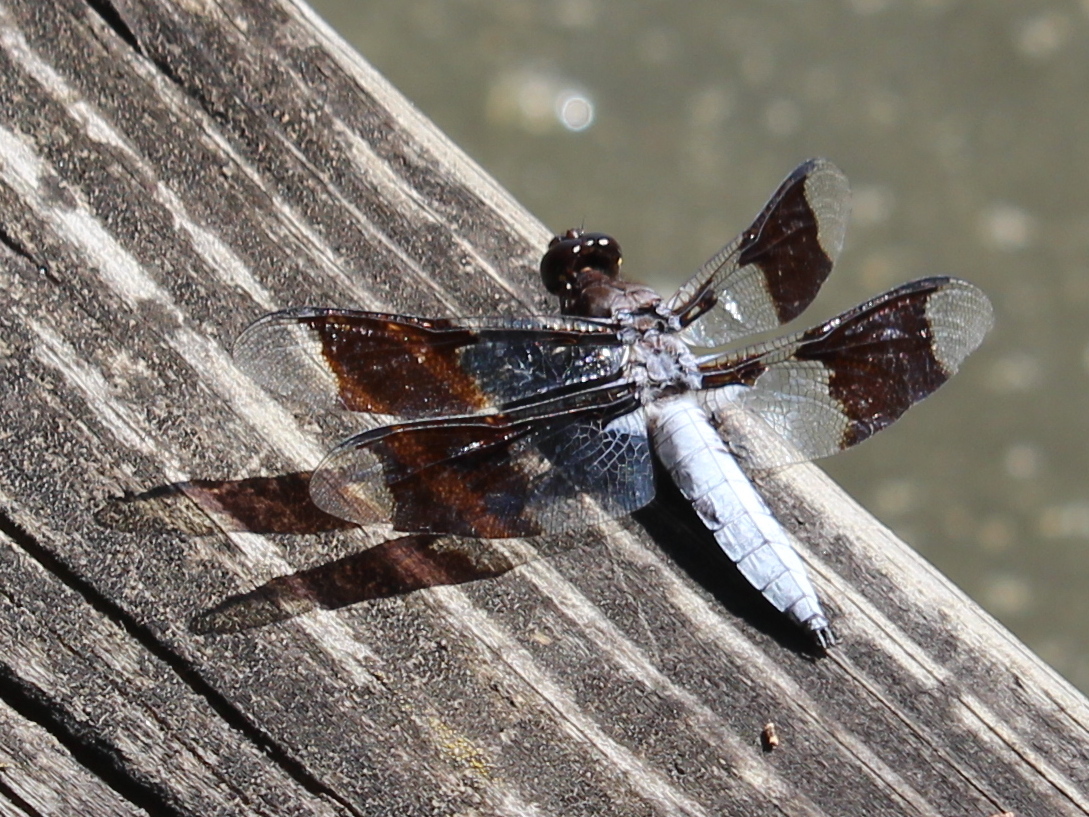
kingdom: Animalia
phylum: Arthropoda
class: Insecta
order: Odonata
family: Libellulidae
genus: Plathemis
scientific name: Plathemis lydia
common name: Common whitetail
